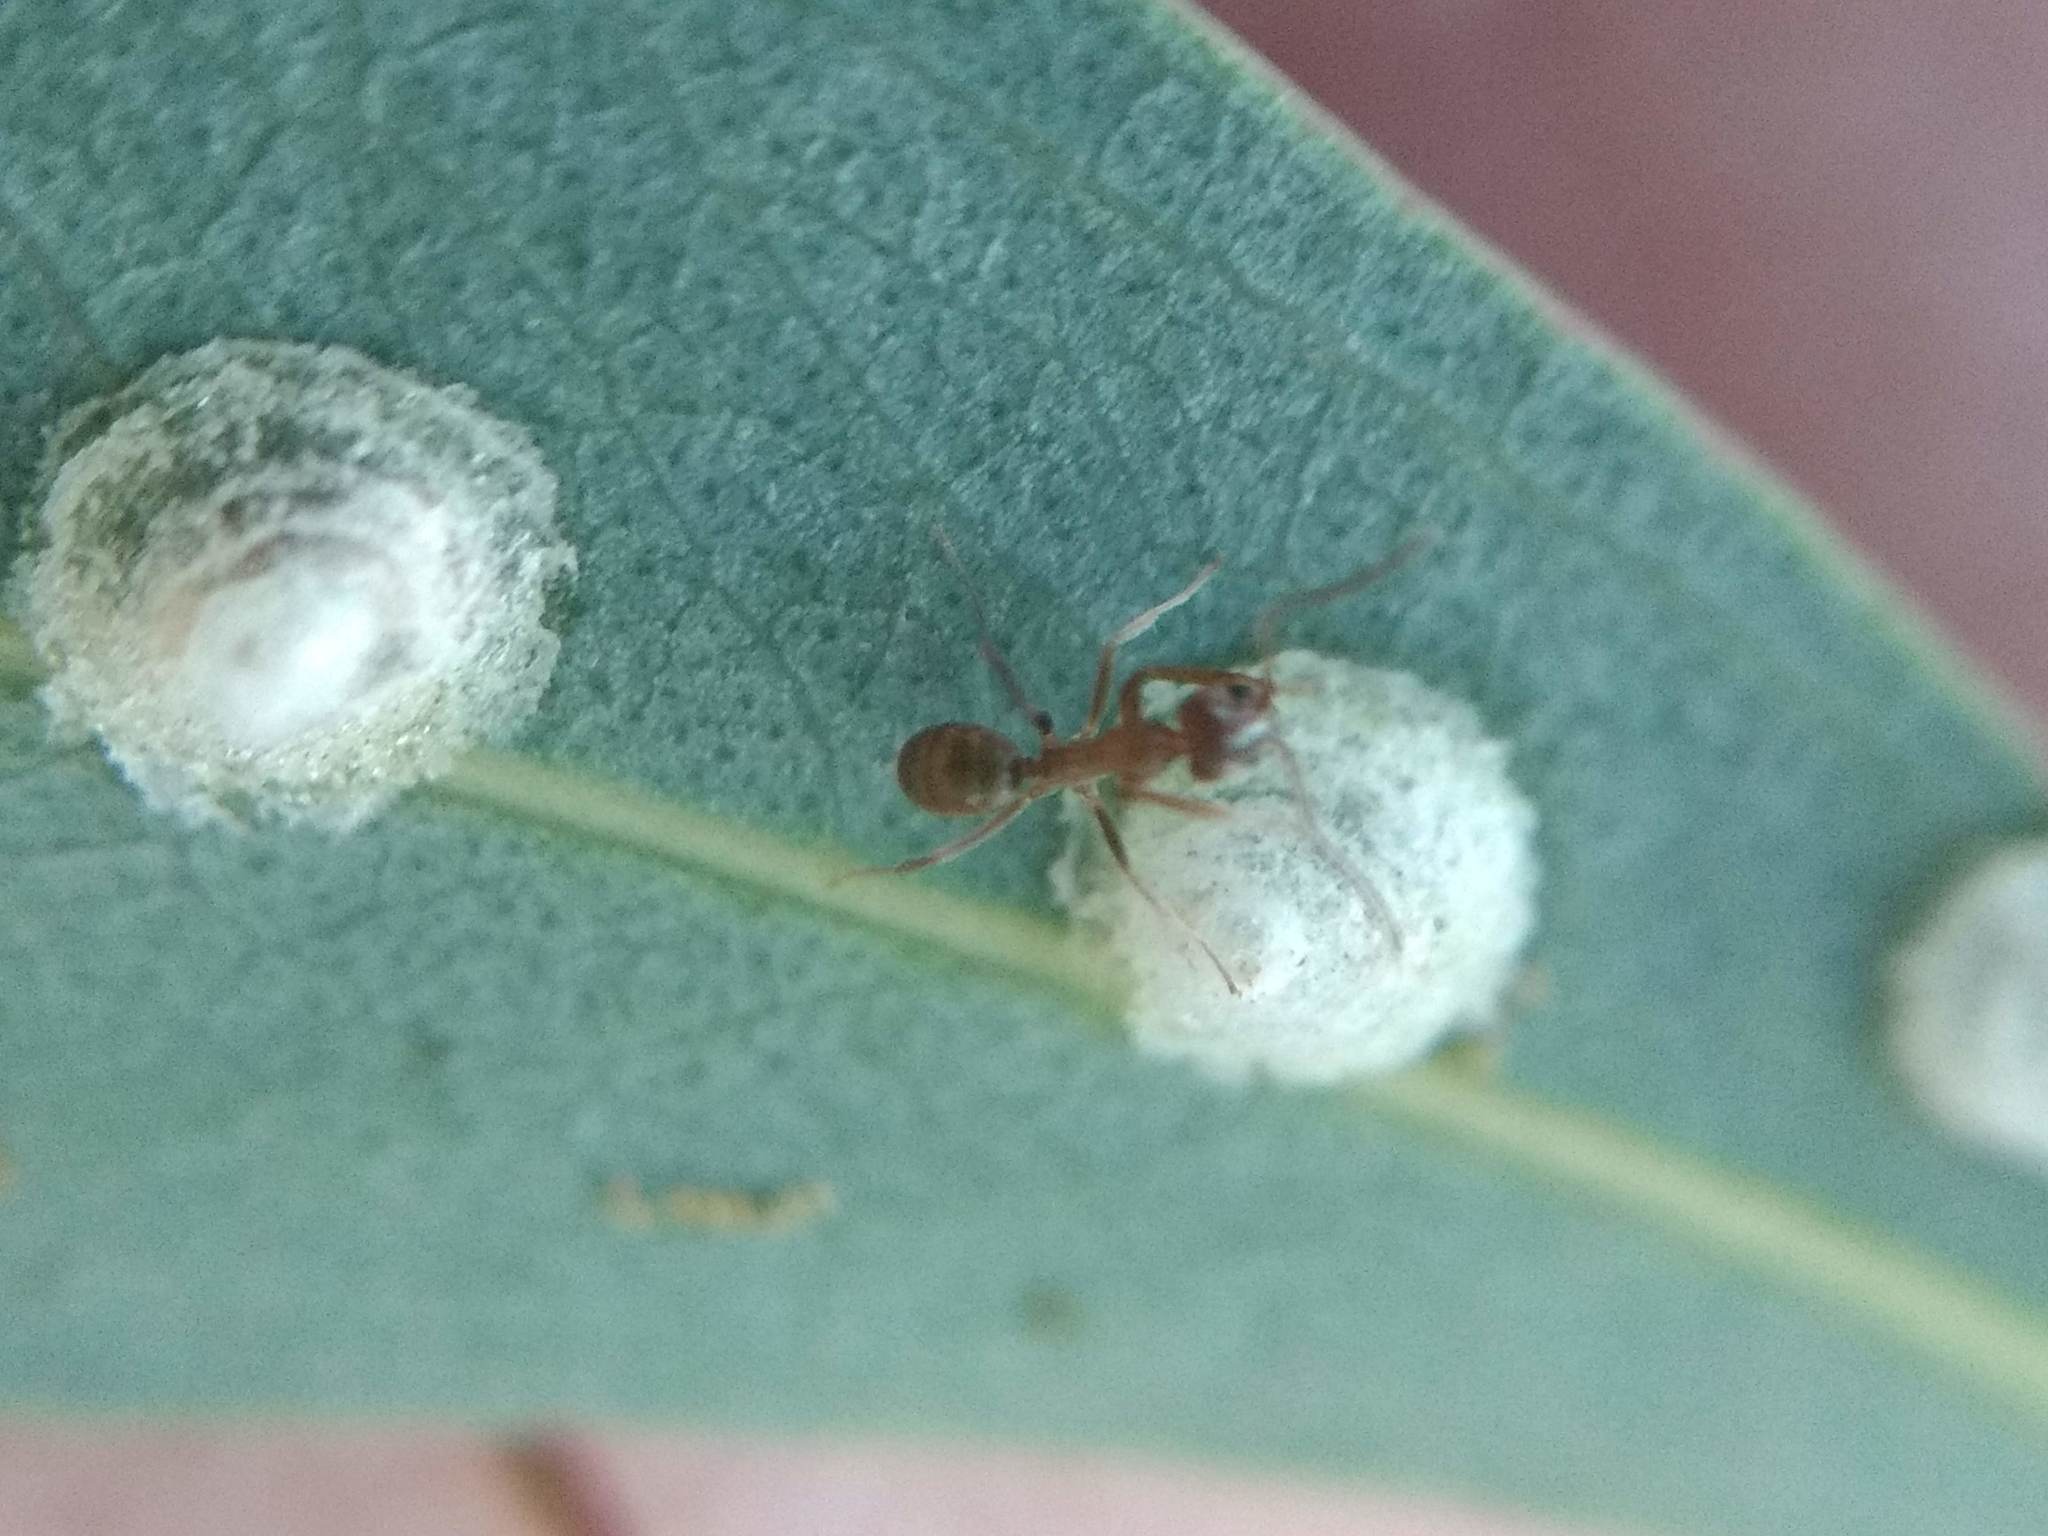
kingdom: Animalia
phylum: Arthropoda
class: Insecta
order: Hymenoptera
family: Formicidae
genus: Linepithema
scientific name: Linepithema humile
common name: Argentine ant
